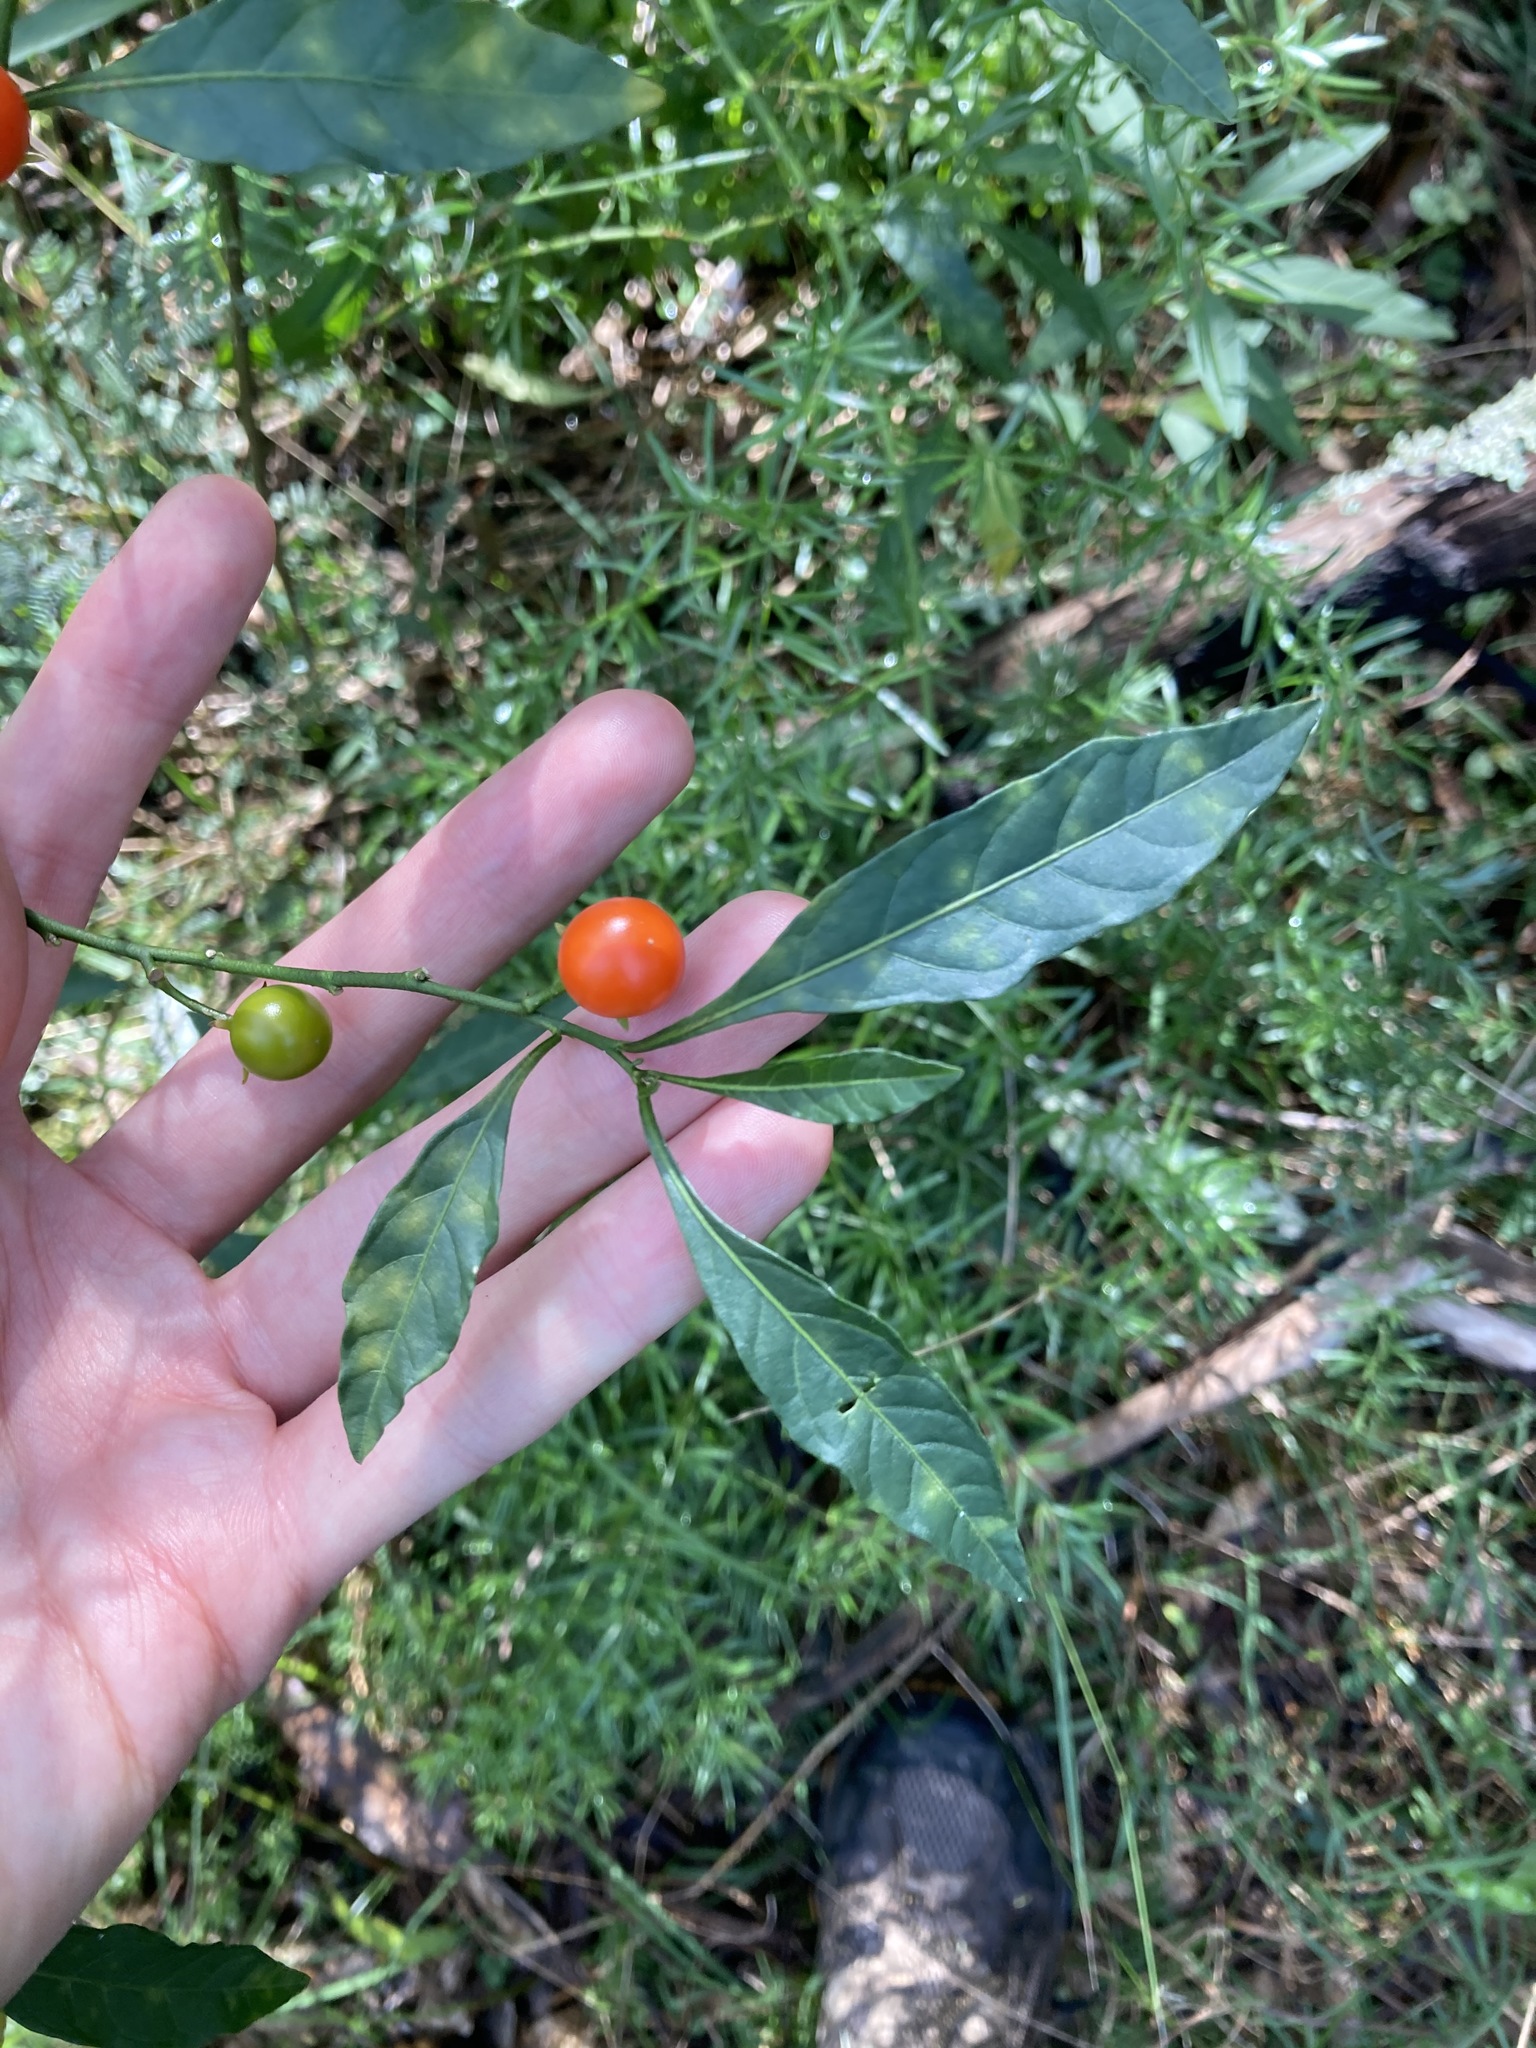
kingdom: Plantae
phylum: Tracheophyta
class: Magnoliopsida
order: Solanales
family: Solanaceae
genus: Solanum
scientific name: Solanum pseudocapsicum
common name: Jerusalem cherry
